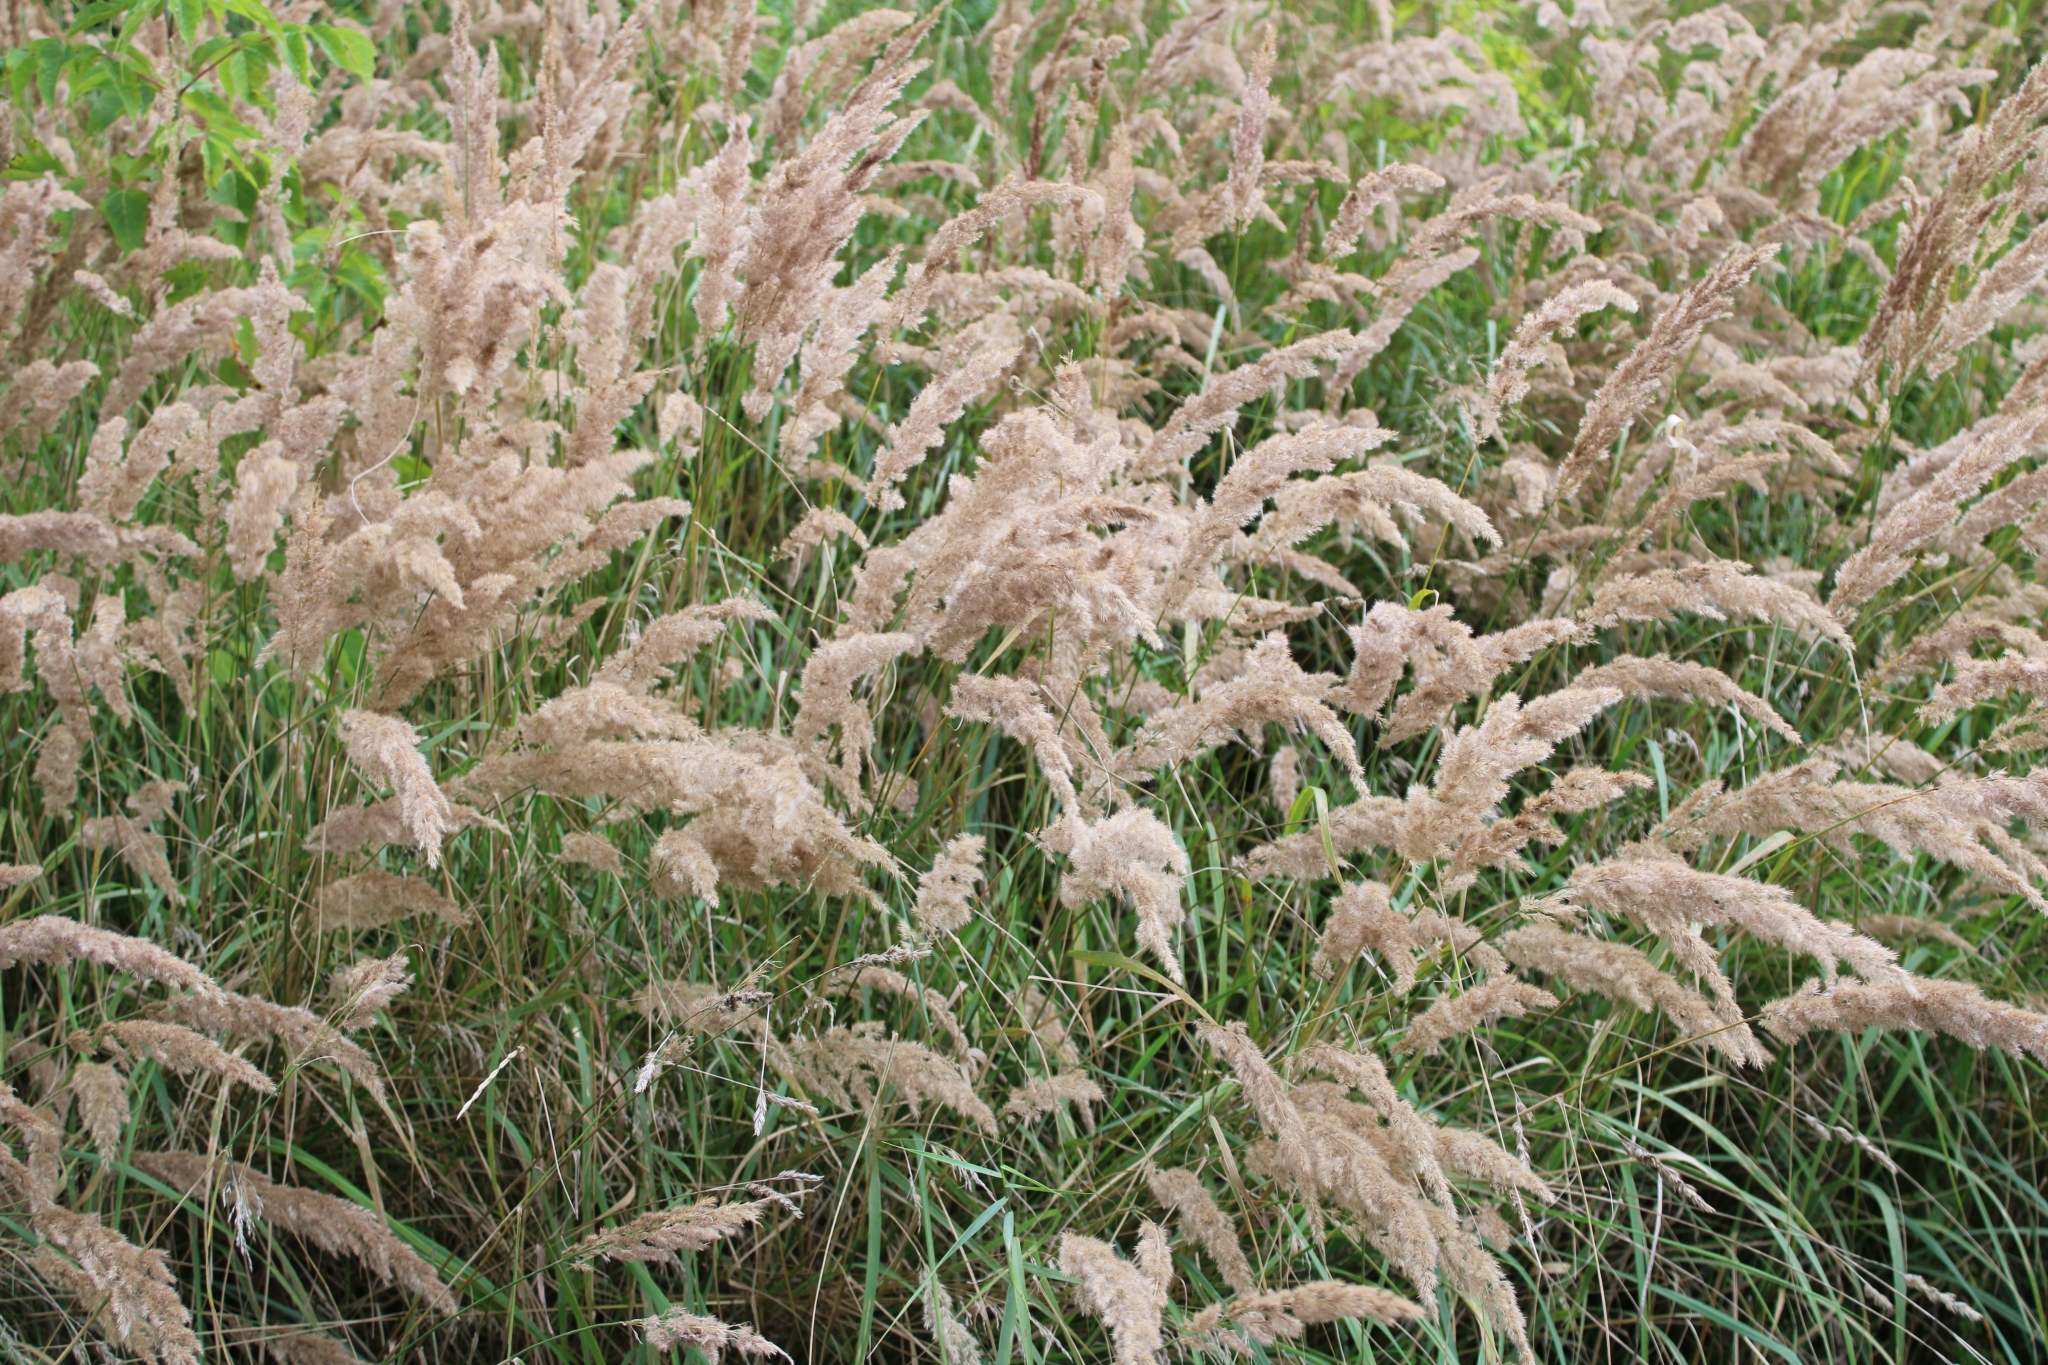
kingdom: Plantae
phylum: Tracheophyta
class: Liliopsida
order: Poales
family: Poaceae
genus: Calamagrostis
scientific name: Calamagrostis epigejos
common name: Wood small-reed
